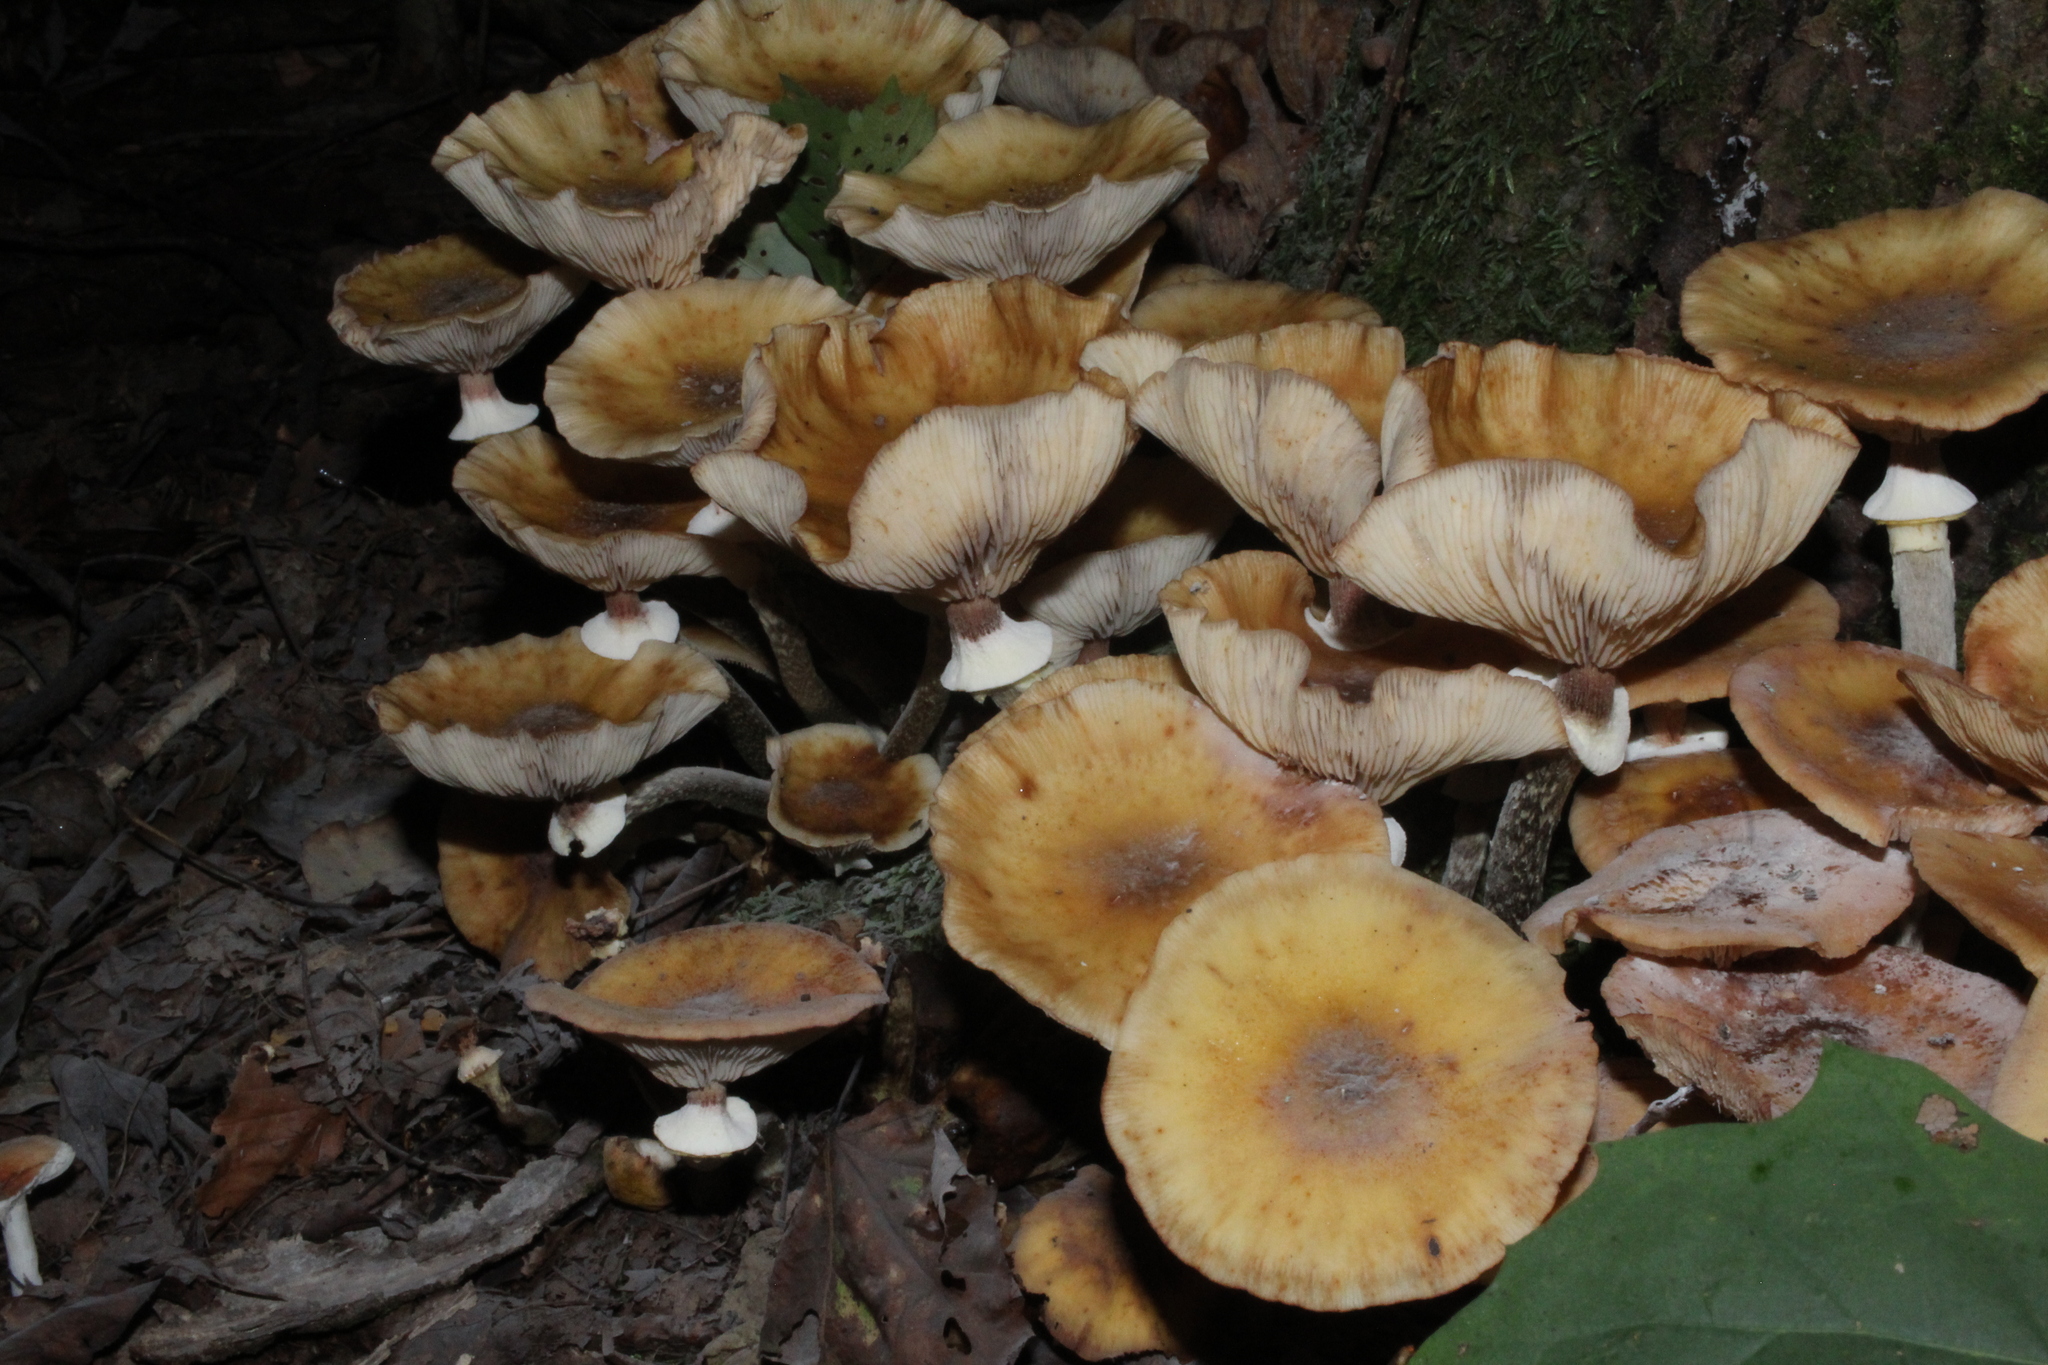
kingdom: Fungi
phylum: Basidiomycota
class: Agaricomycetes
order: Agaricales
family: Physalacriaceae
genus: Armillaria
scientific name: Armillaria mellea
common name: Honey fungus
